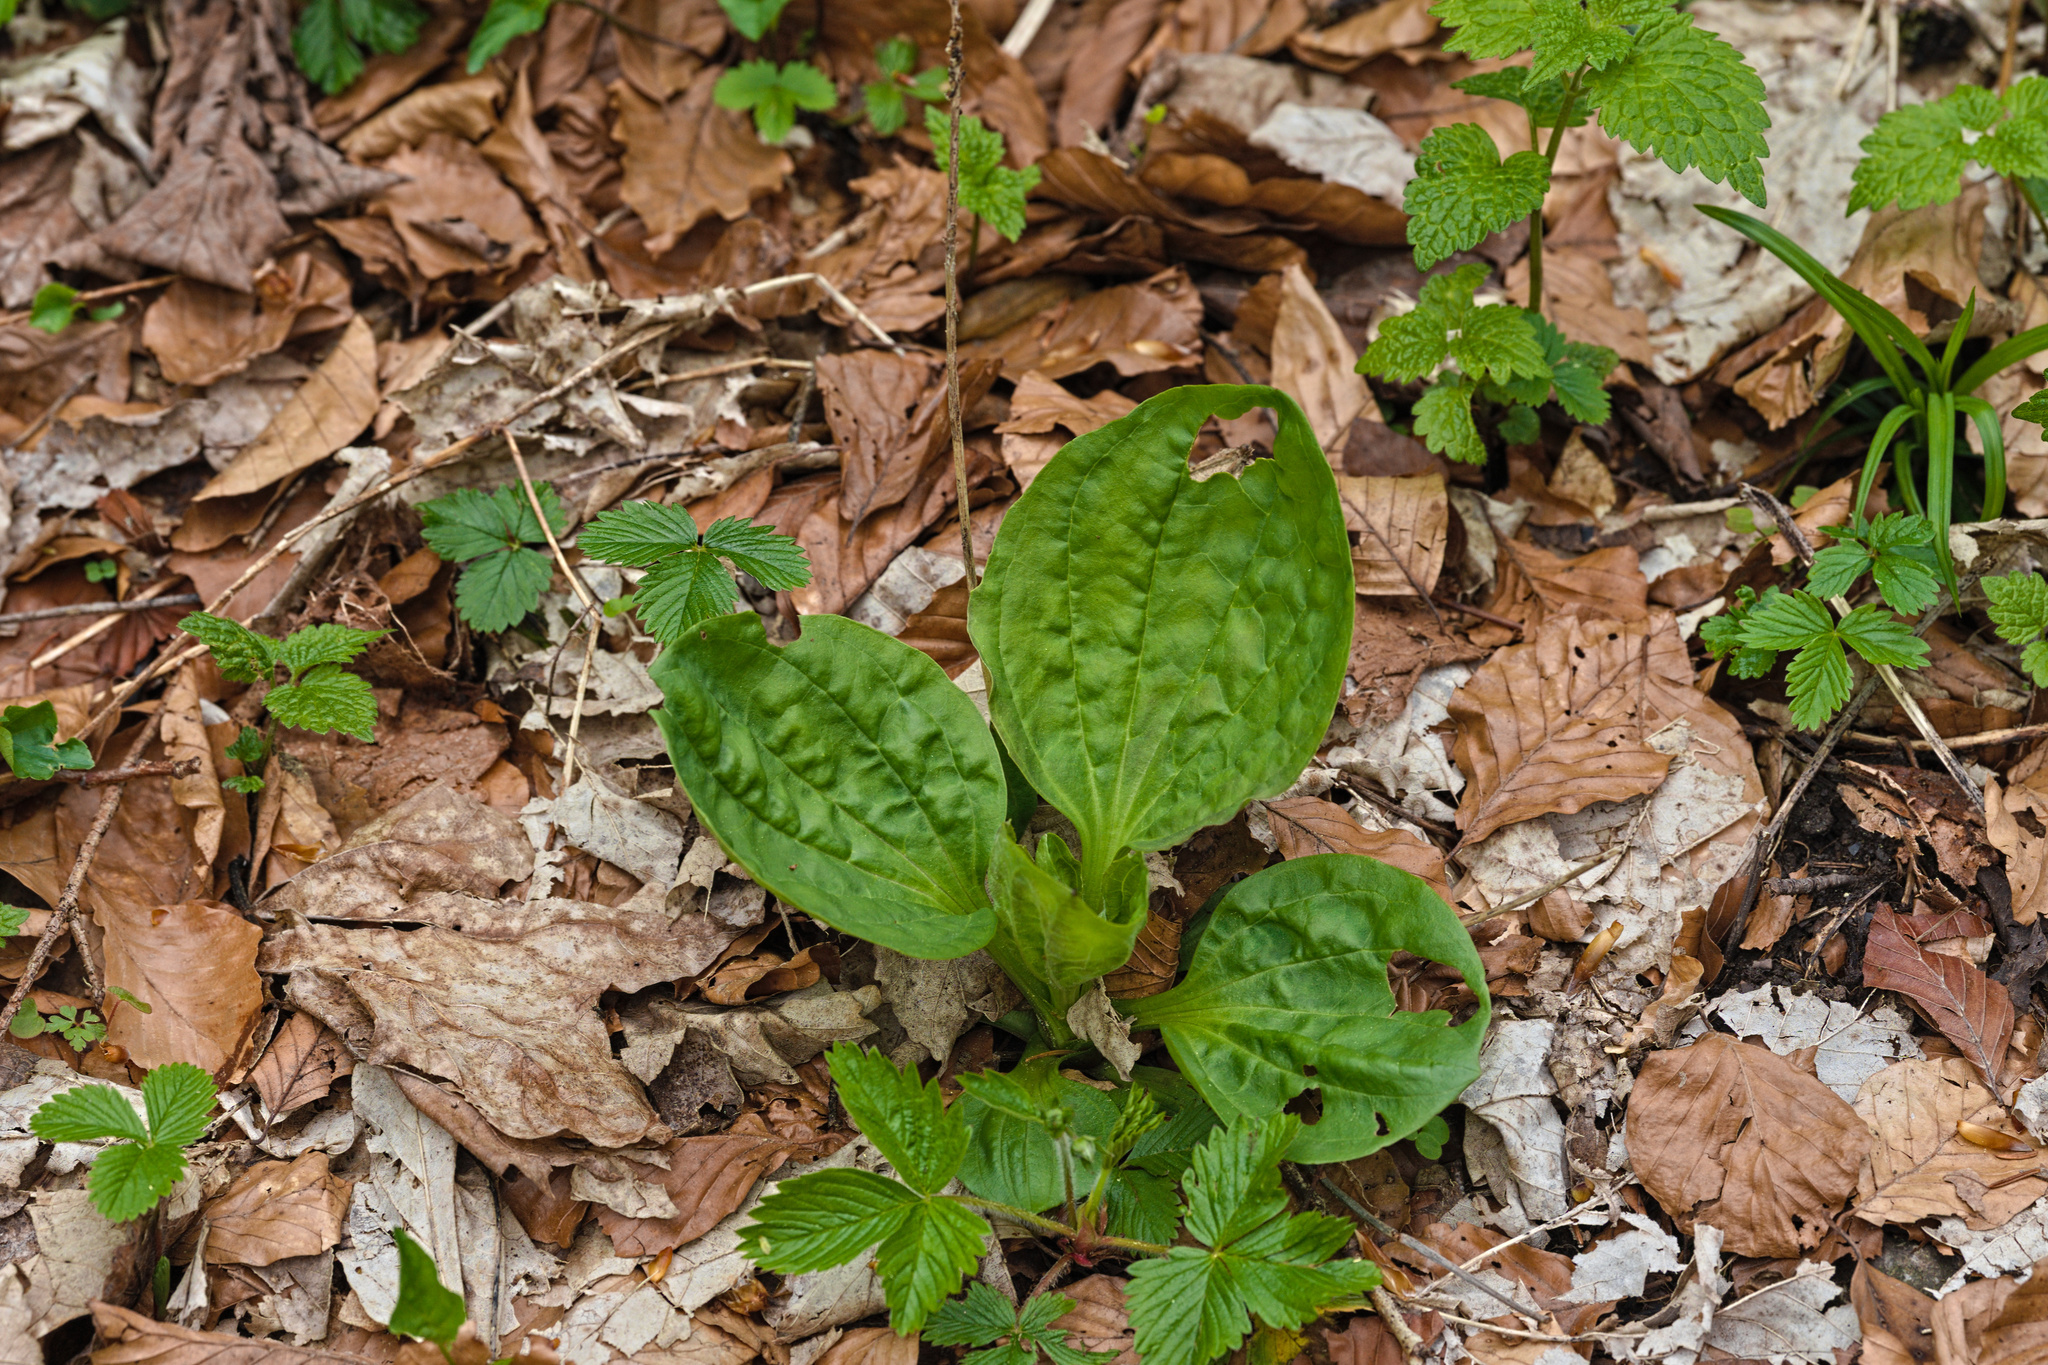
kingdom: Plantae
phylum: Tracheophyta
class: Magnoliopsida
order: Lamiales
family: Plantaginaceae
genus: Plantago
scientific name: Plantago major
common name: Common plantain
